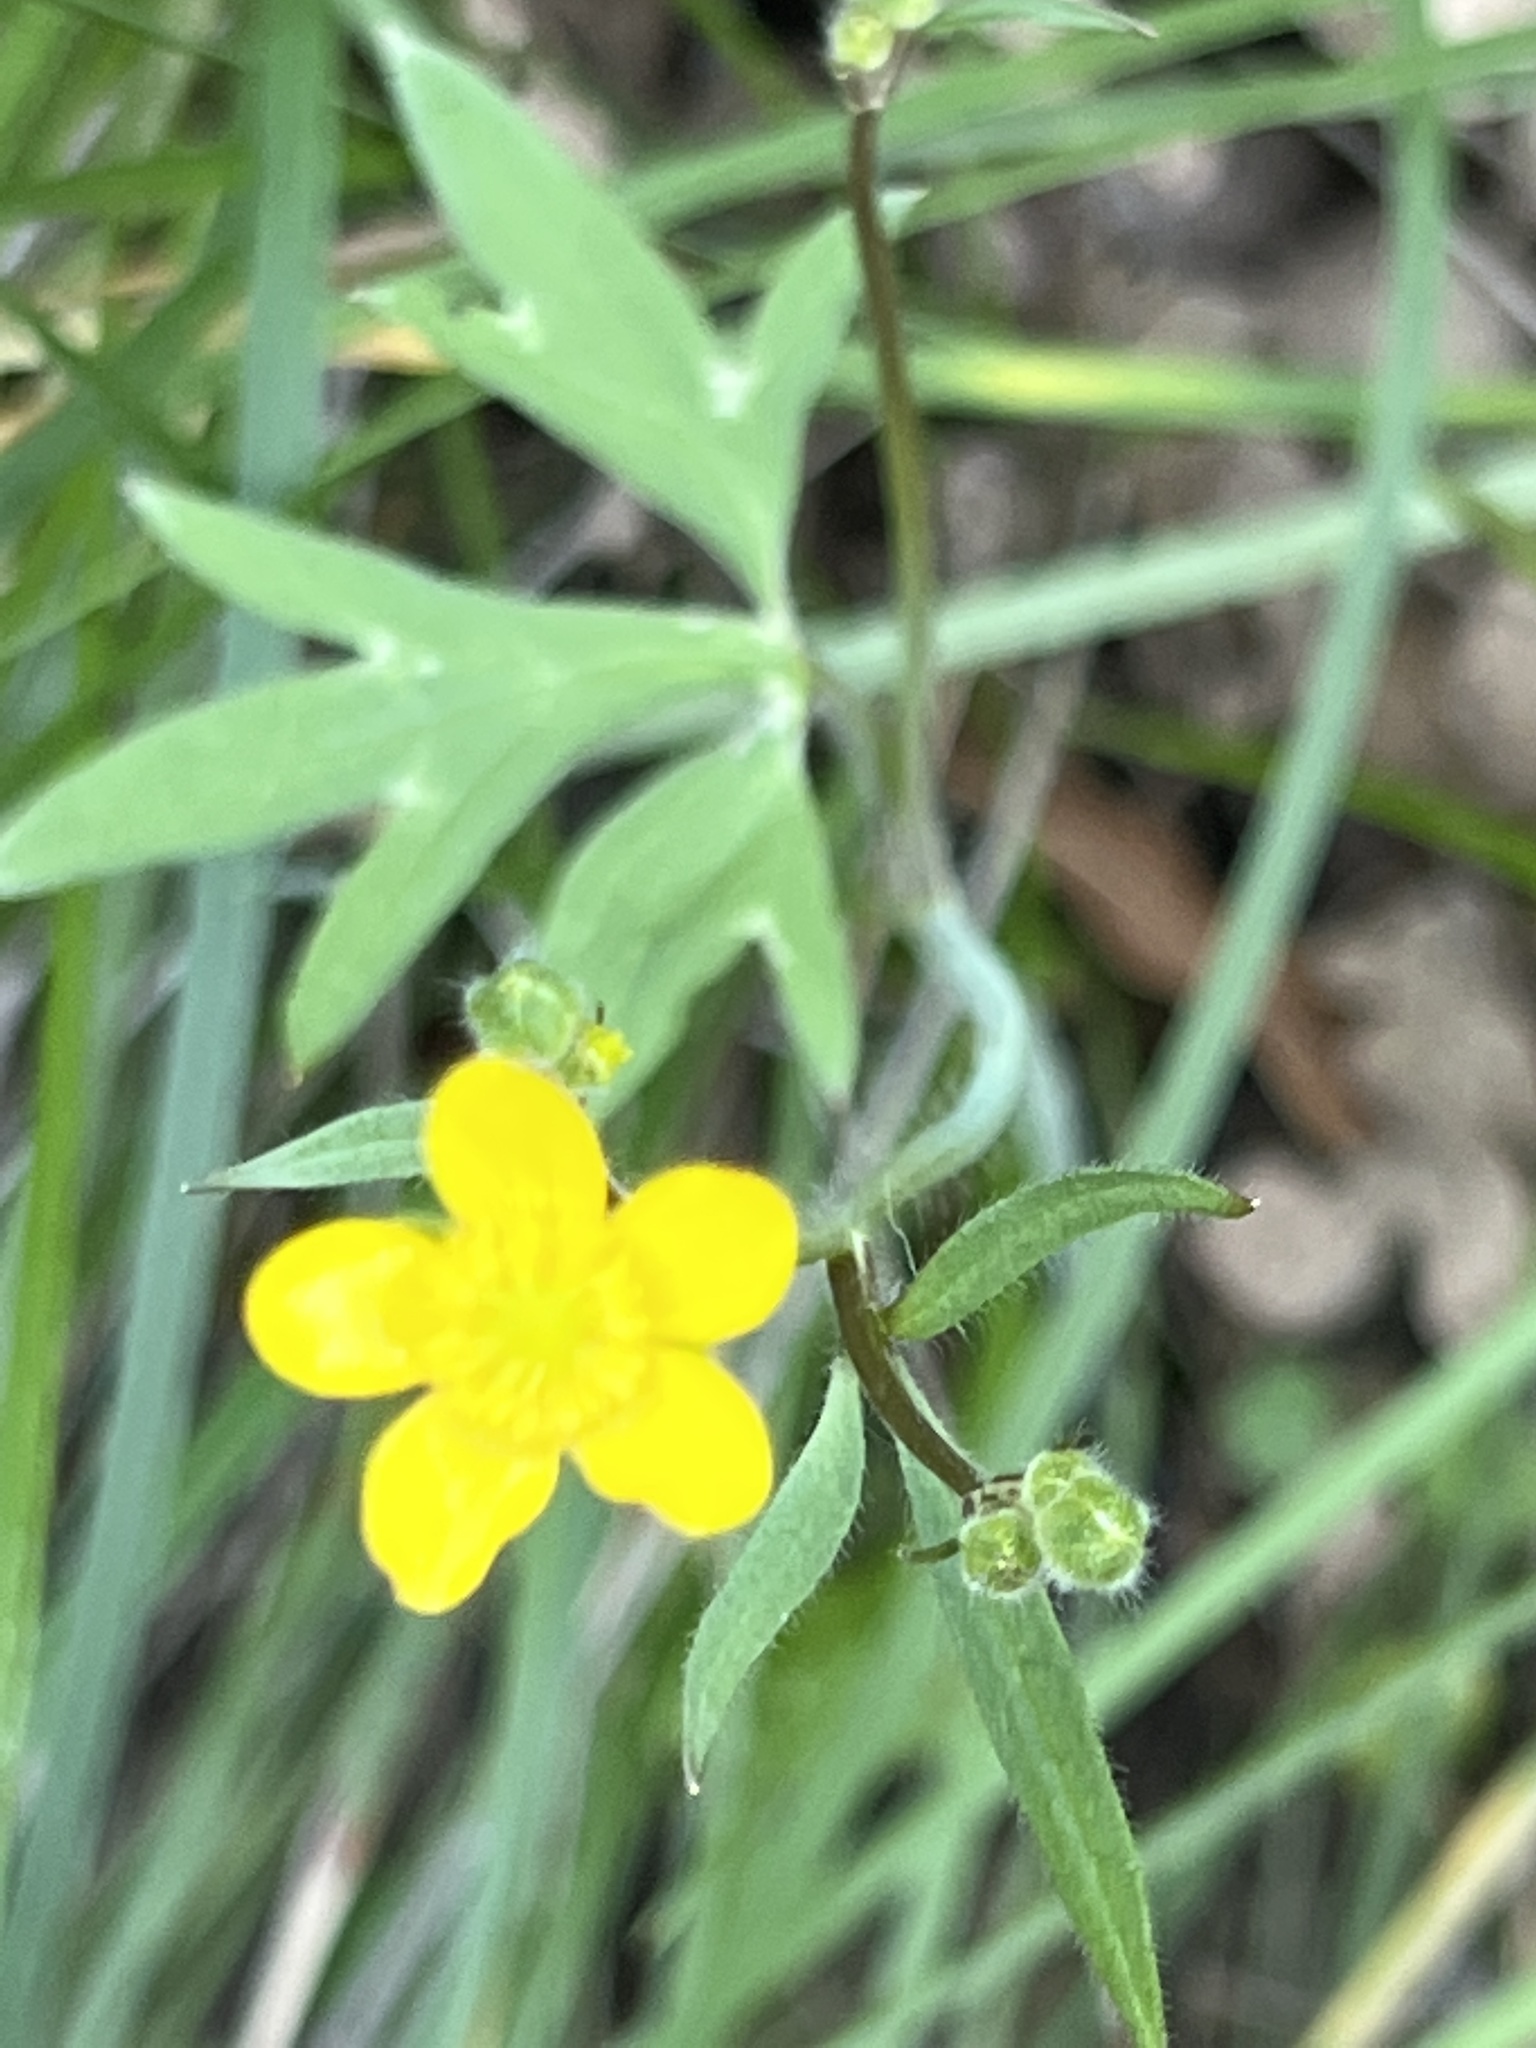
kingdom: Plantae
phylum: Tracheophyta
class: Magnoliopsida
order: Ranunculales
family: Ranunculaceae
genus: Ranunculus
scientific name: Ranunculus occidentalis
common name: Western buttercup
